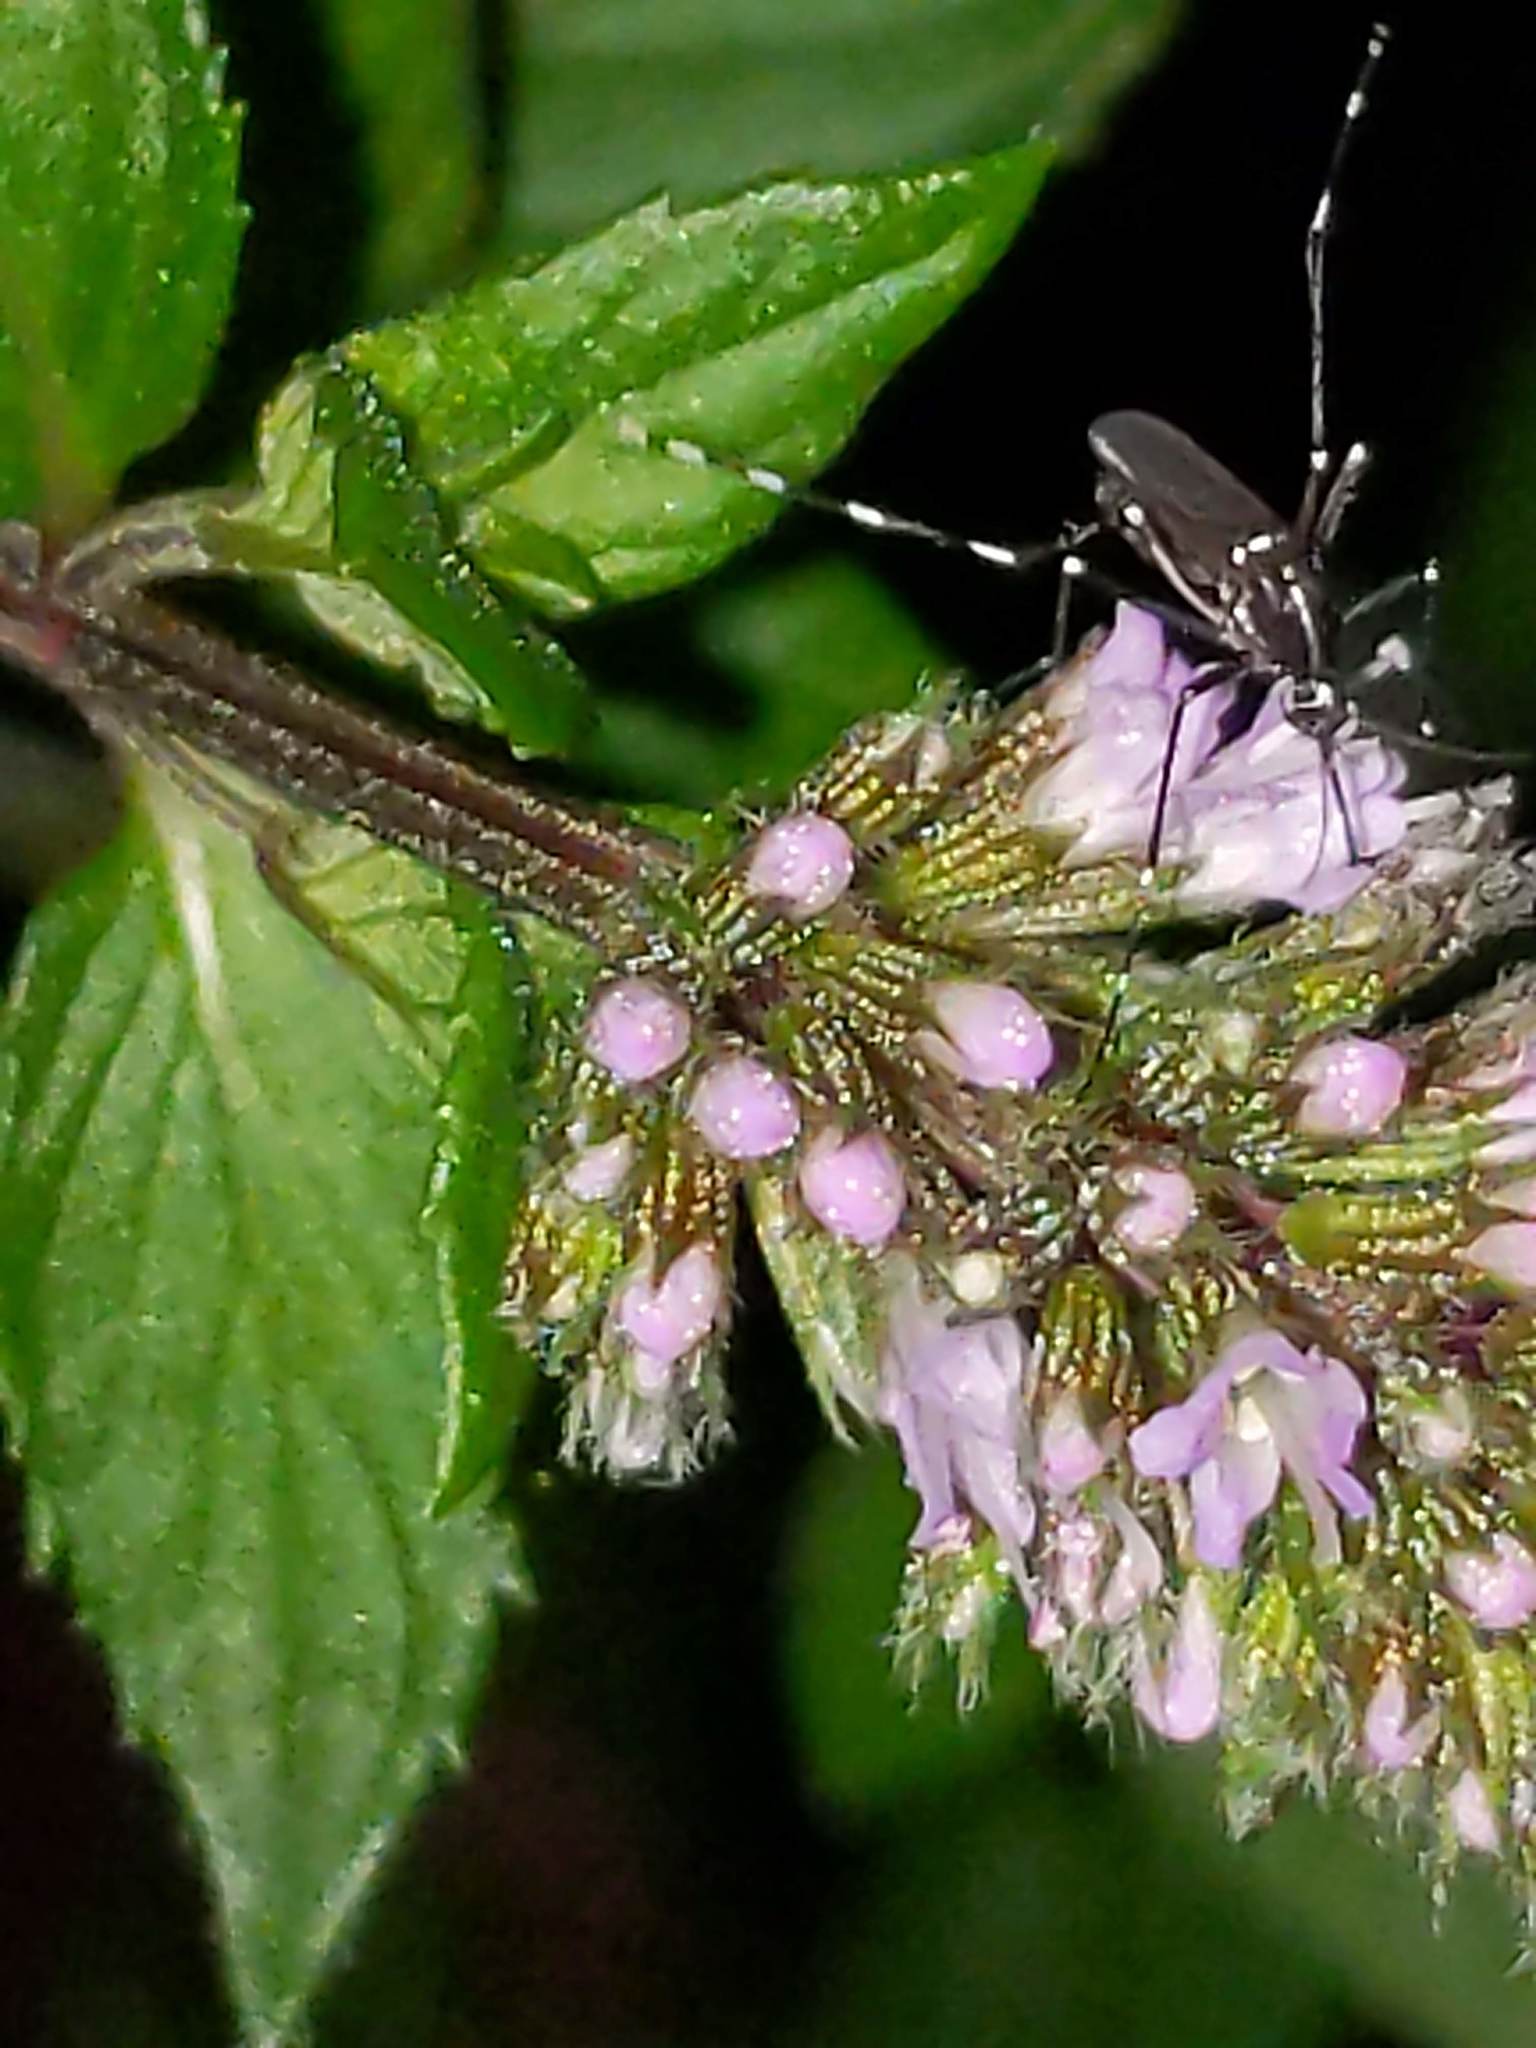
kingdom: Animalia
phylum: Arthropoda
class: Insecta
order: Diptera
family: Culicidae
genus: Aedes
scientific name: Aedes albopictus
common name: Tiger mosquito
